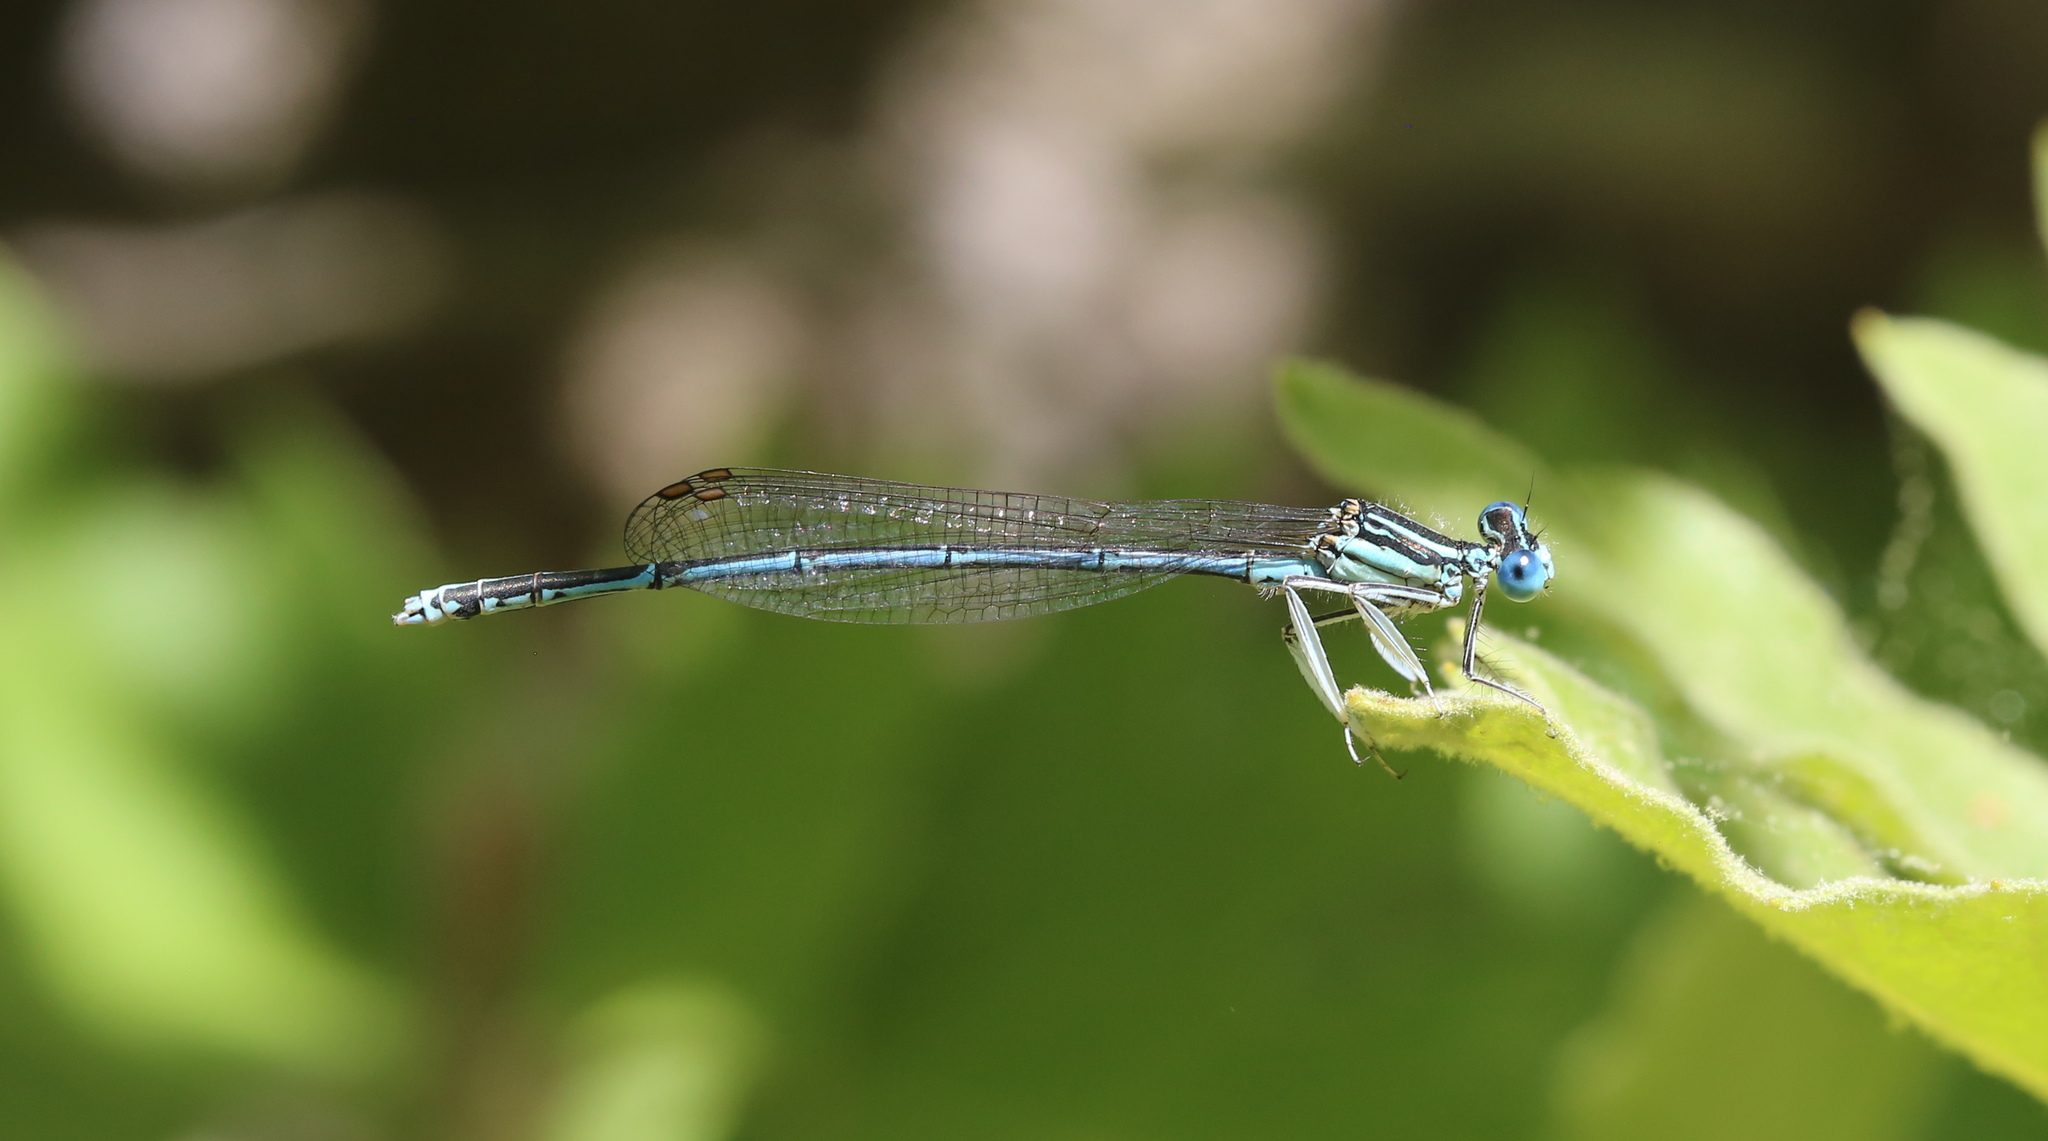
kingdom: Animalia
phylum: Arthropoda
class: Insecta
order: Odonata
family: Platycnemididae
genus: Platycnemis
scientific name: Platycnemis pennipes
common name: White-legged damselfly
